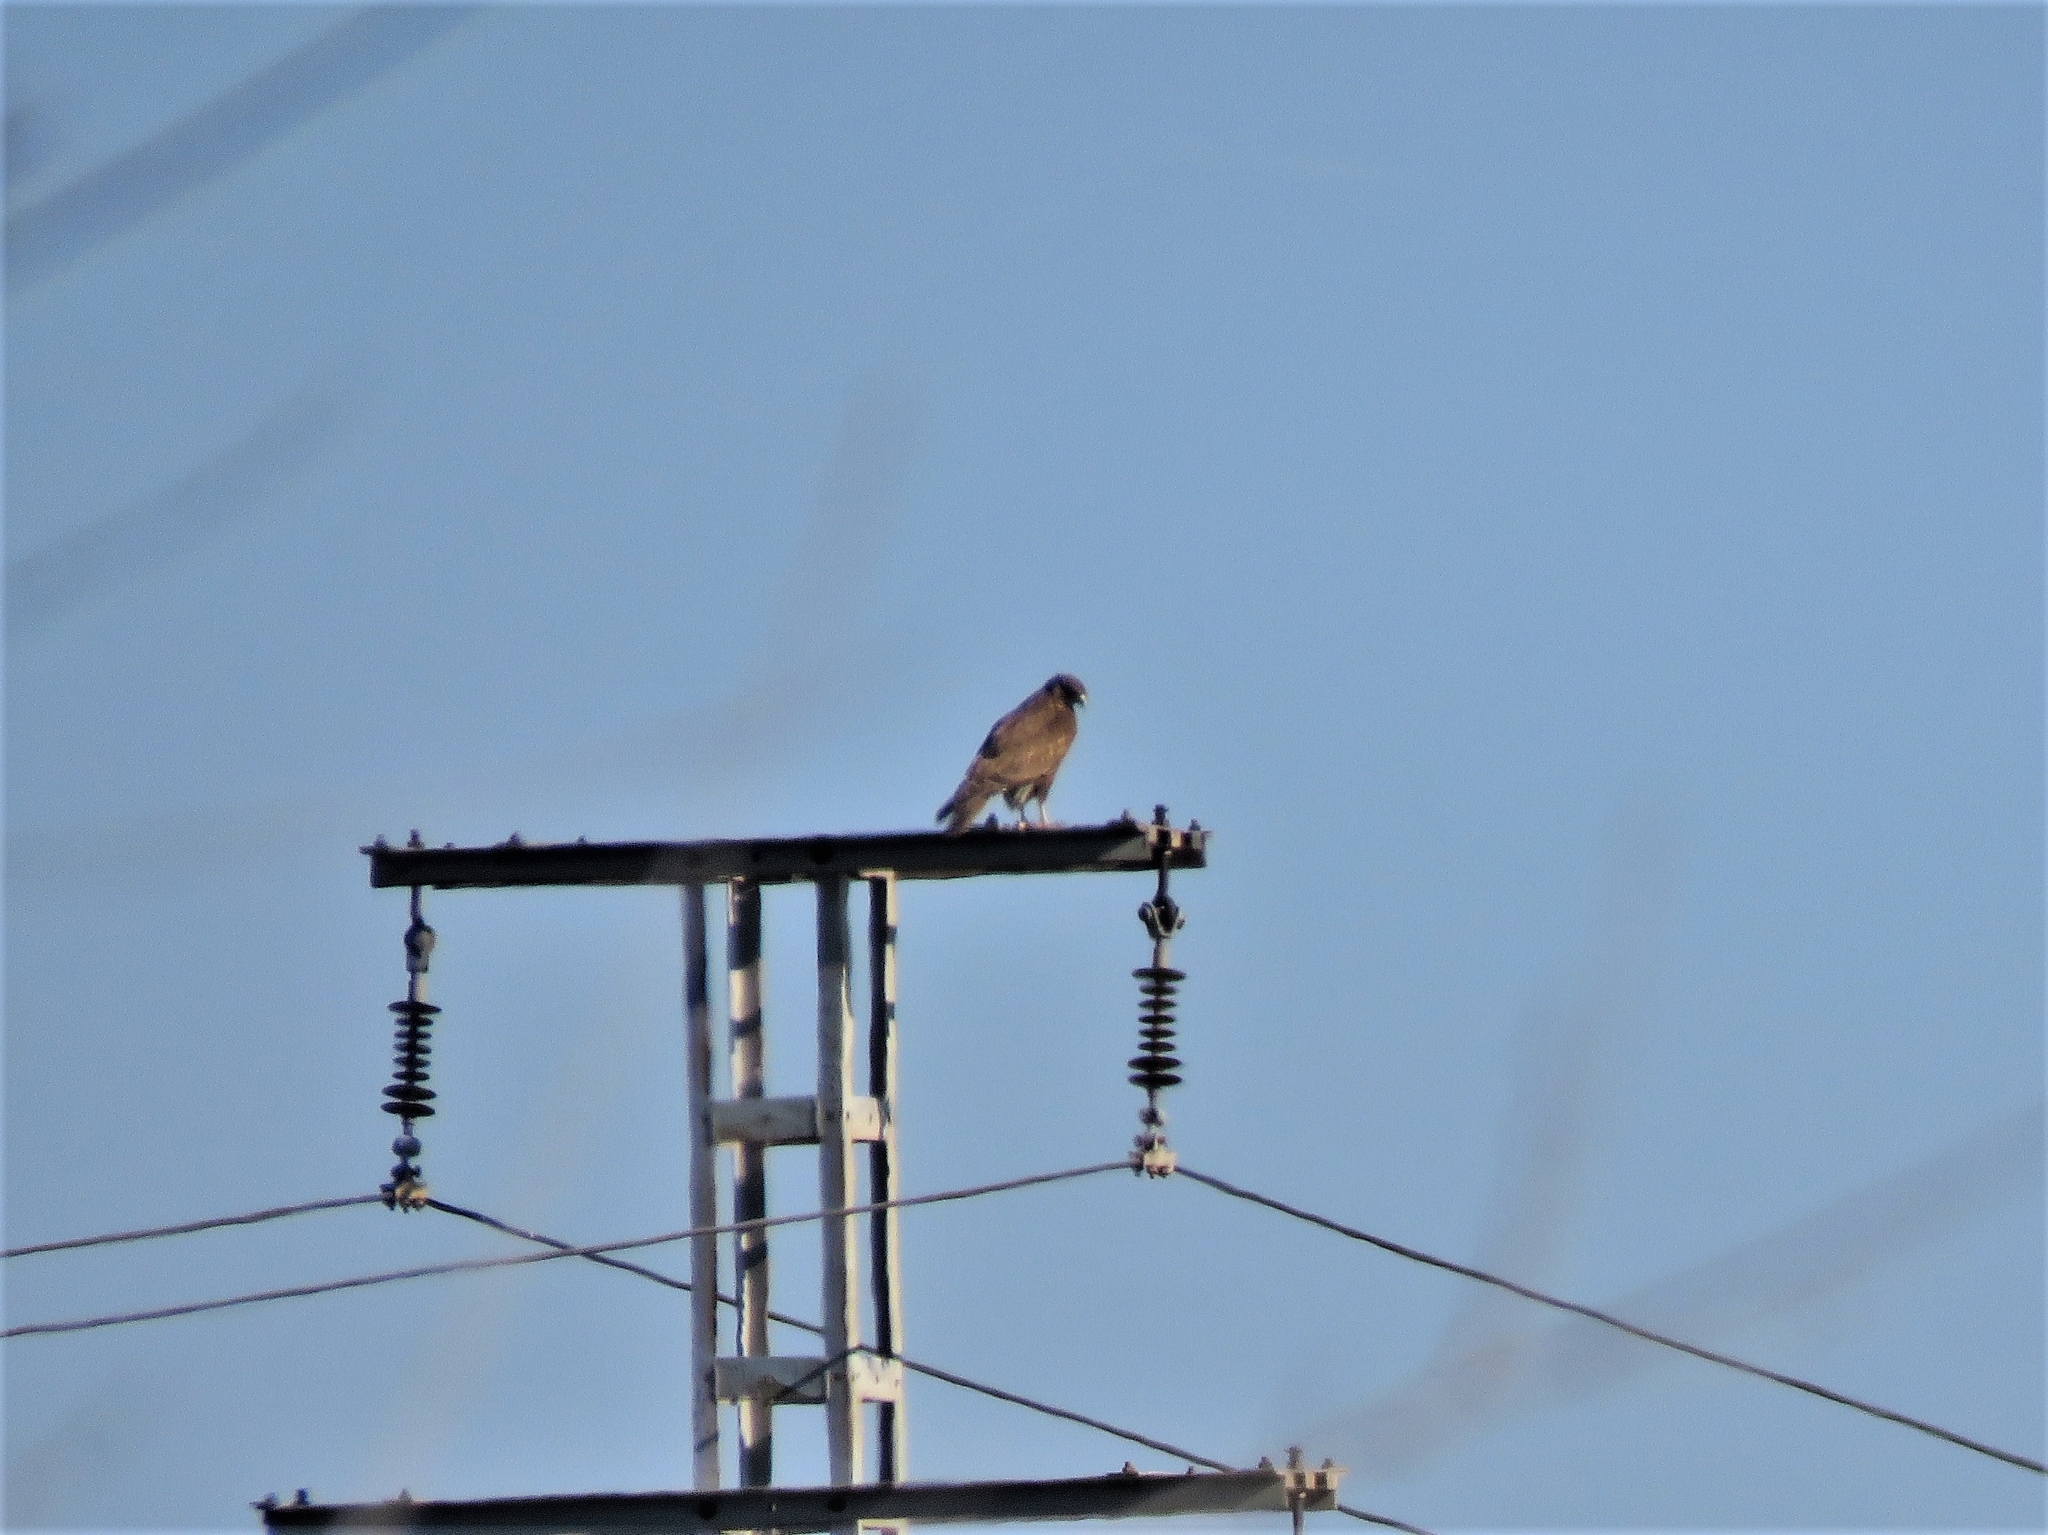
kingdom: Animalia
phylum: Chordata
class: Aves
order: Accipitriformes
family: Accipitridae
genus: Buteo
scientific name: Buteo buteo
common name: Common buzzard
